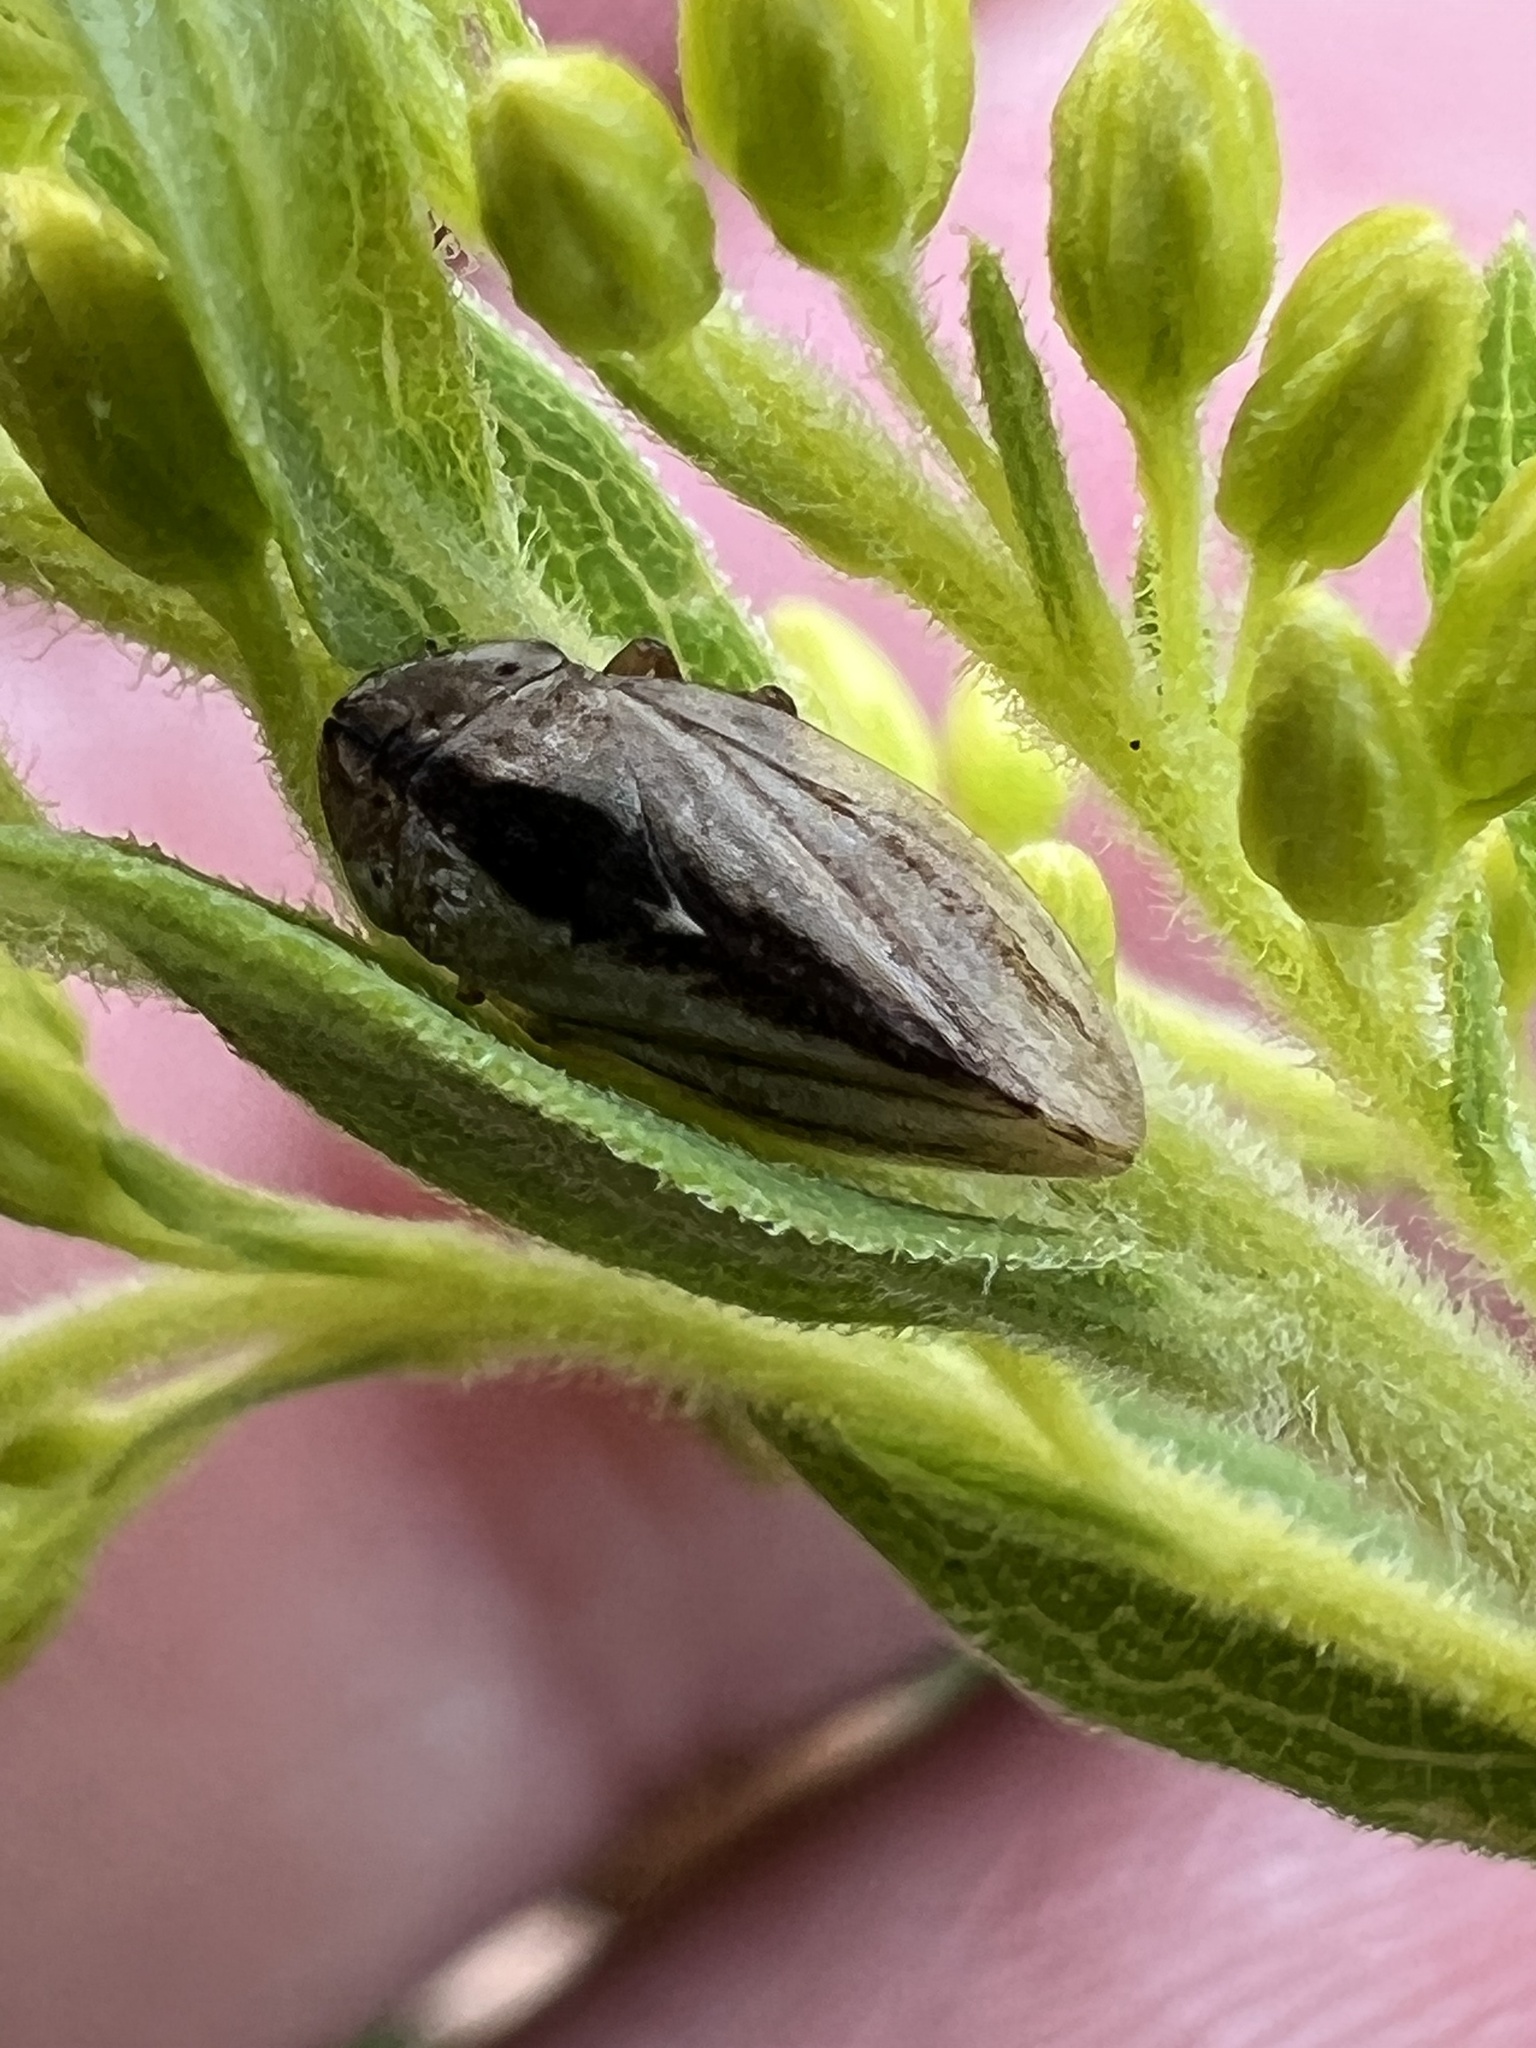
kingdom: Animalia
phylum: Arthropoda
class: Insecta
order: Hemiptera
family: Aphrophoridae
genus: Philaenus
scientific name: Philaenus spumarius
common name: Meadow spittlebug
